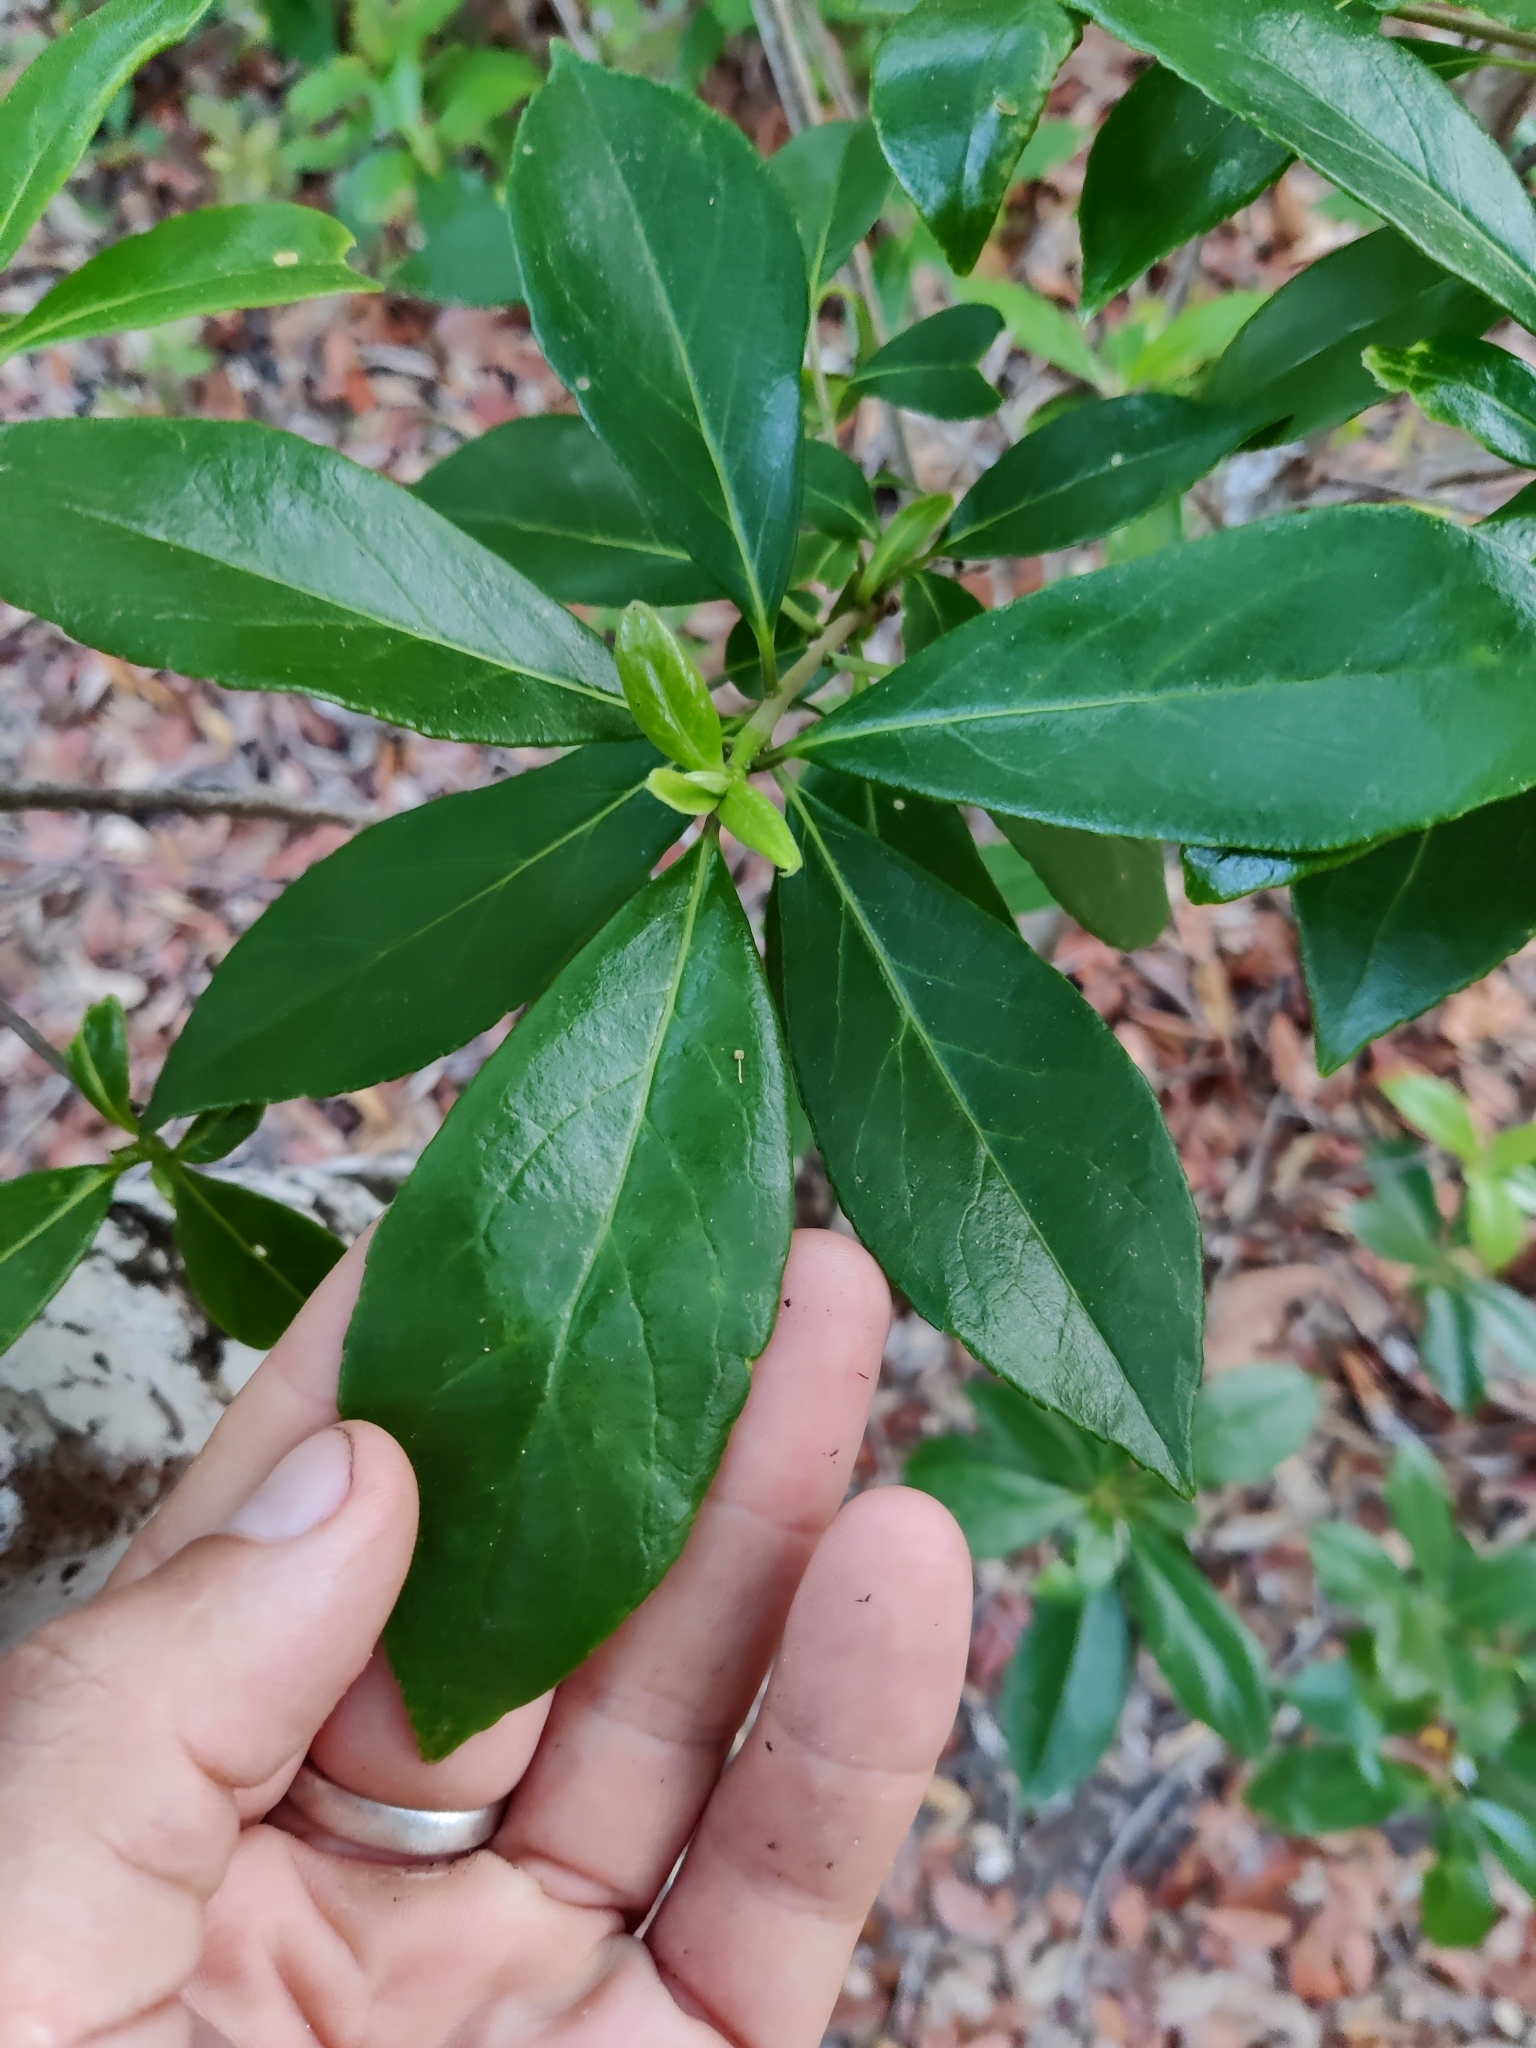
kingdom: Plantae
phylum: Tracheophyta
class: Magnoliopsida
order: Ericales
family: Symplocaceae
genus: Symplocos
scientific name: Symplocos tinctoria
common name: Horse-sugar
